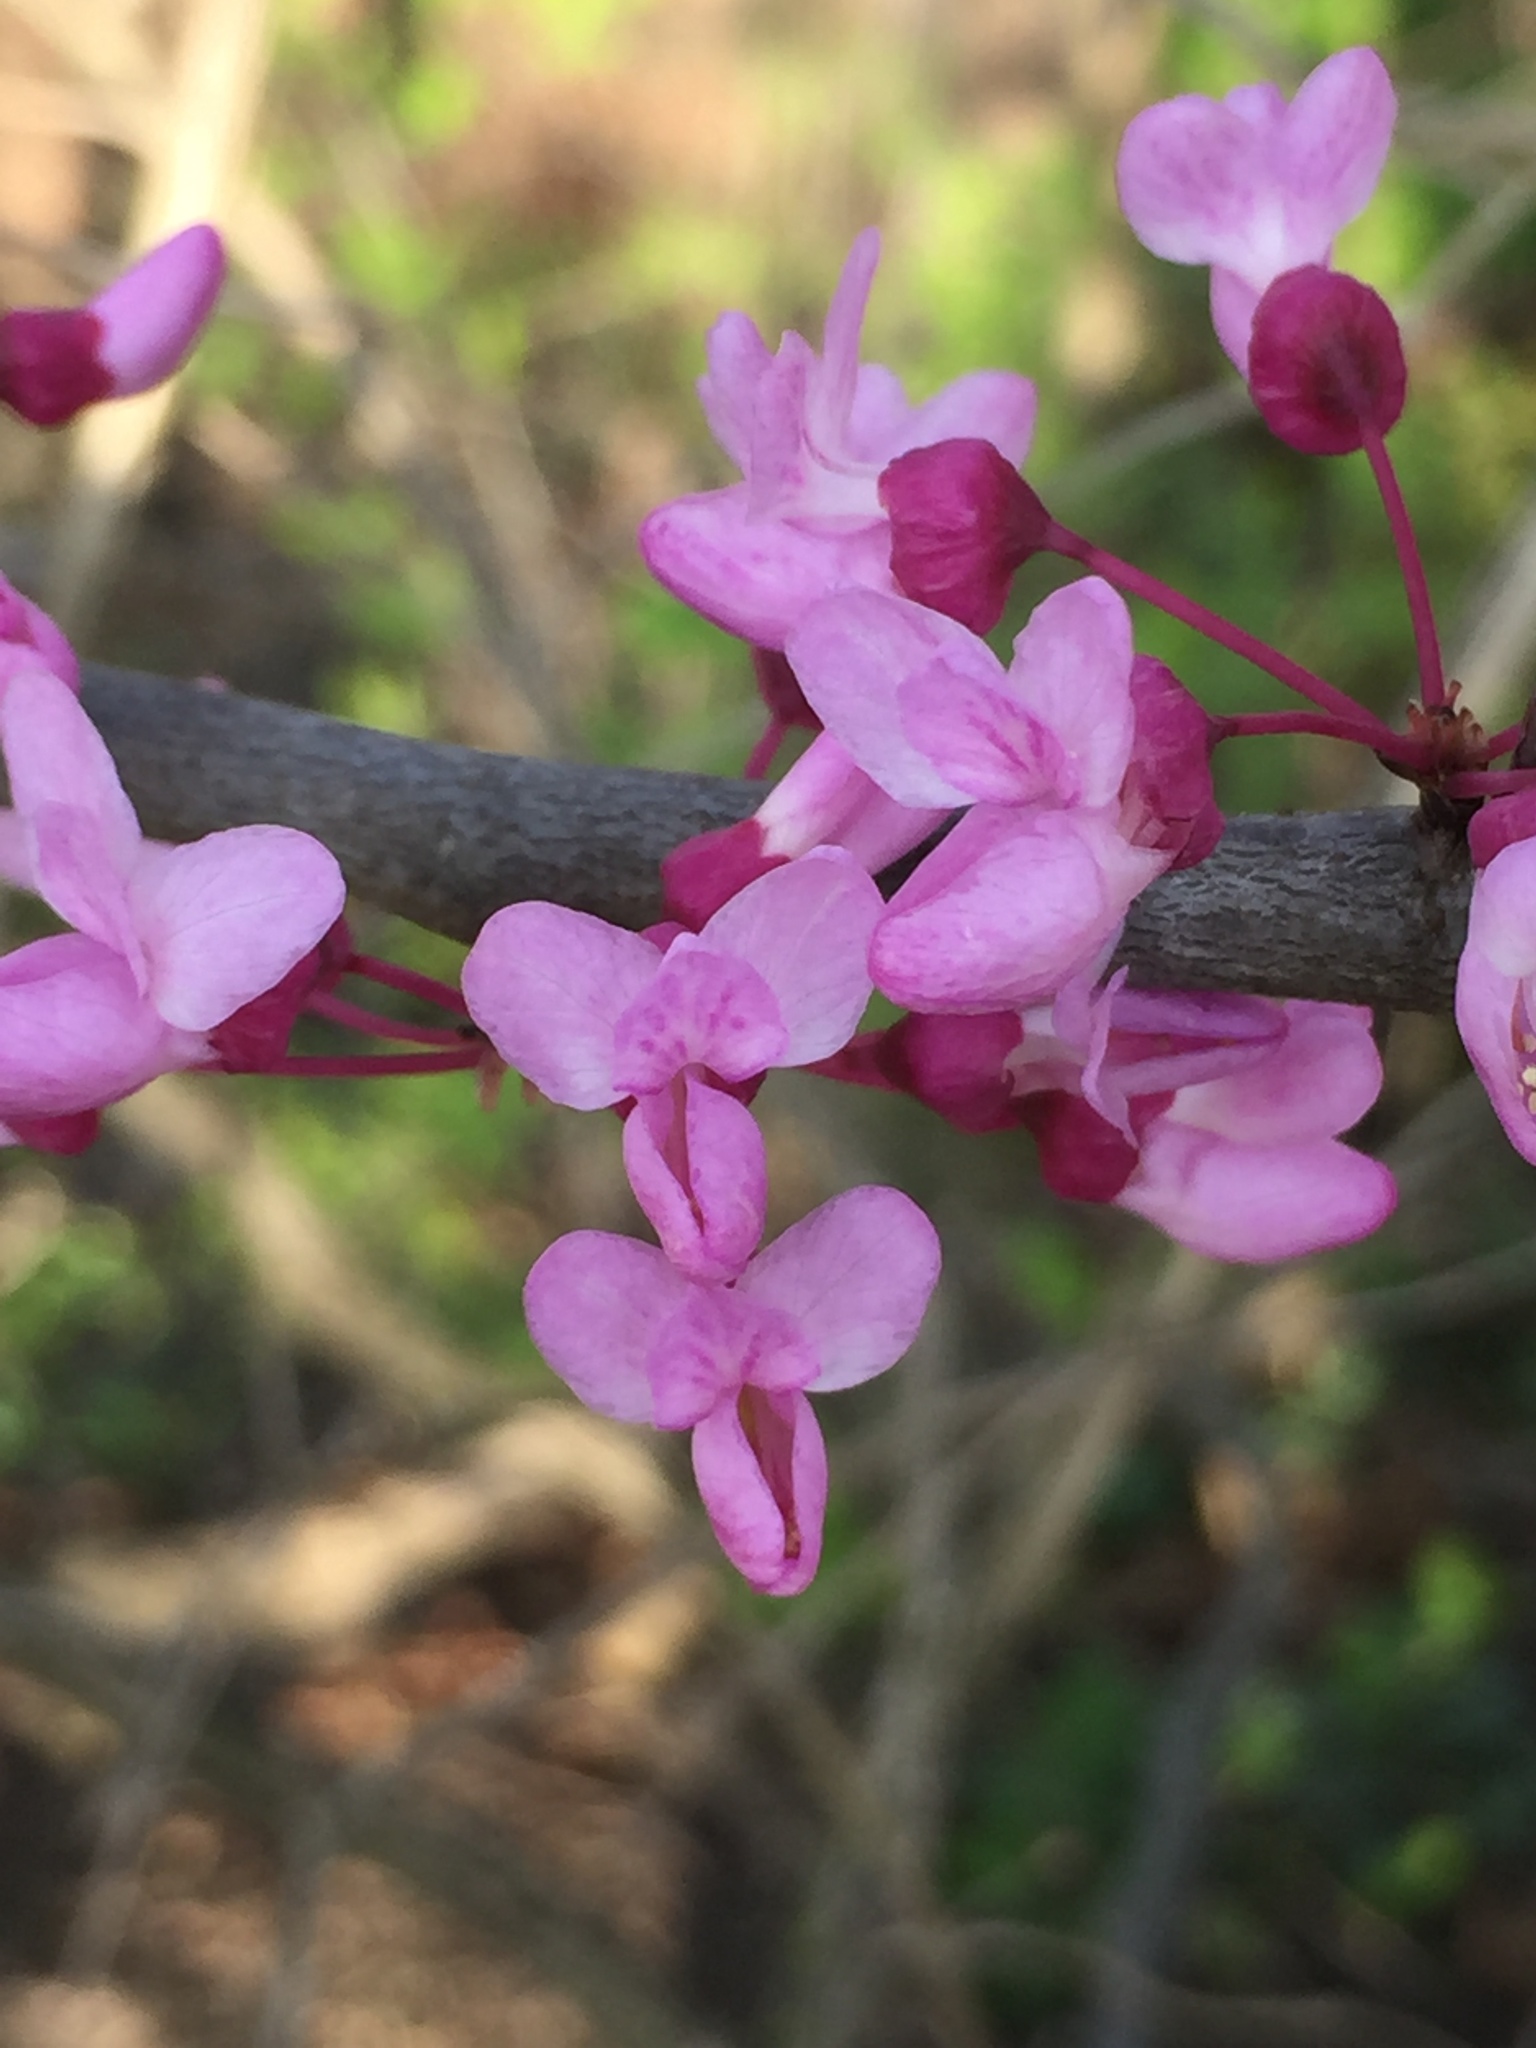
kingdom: Plantae
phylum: Tracheophyta
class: Magnoliopsida
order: Fabales
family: Fabaceae
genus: Cercis
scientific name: Cercis canadensis
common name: Eastern redbud
